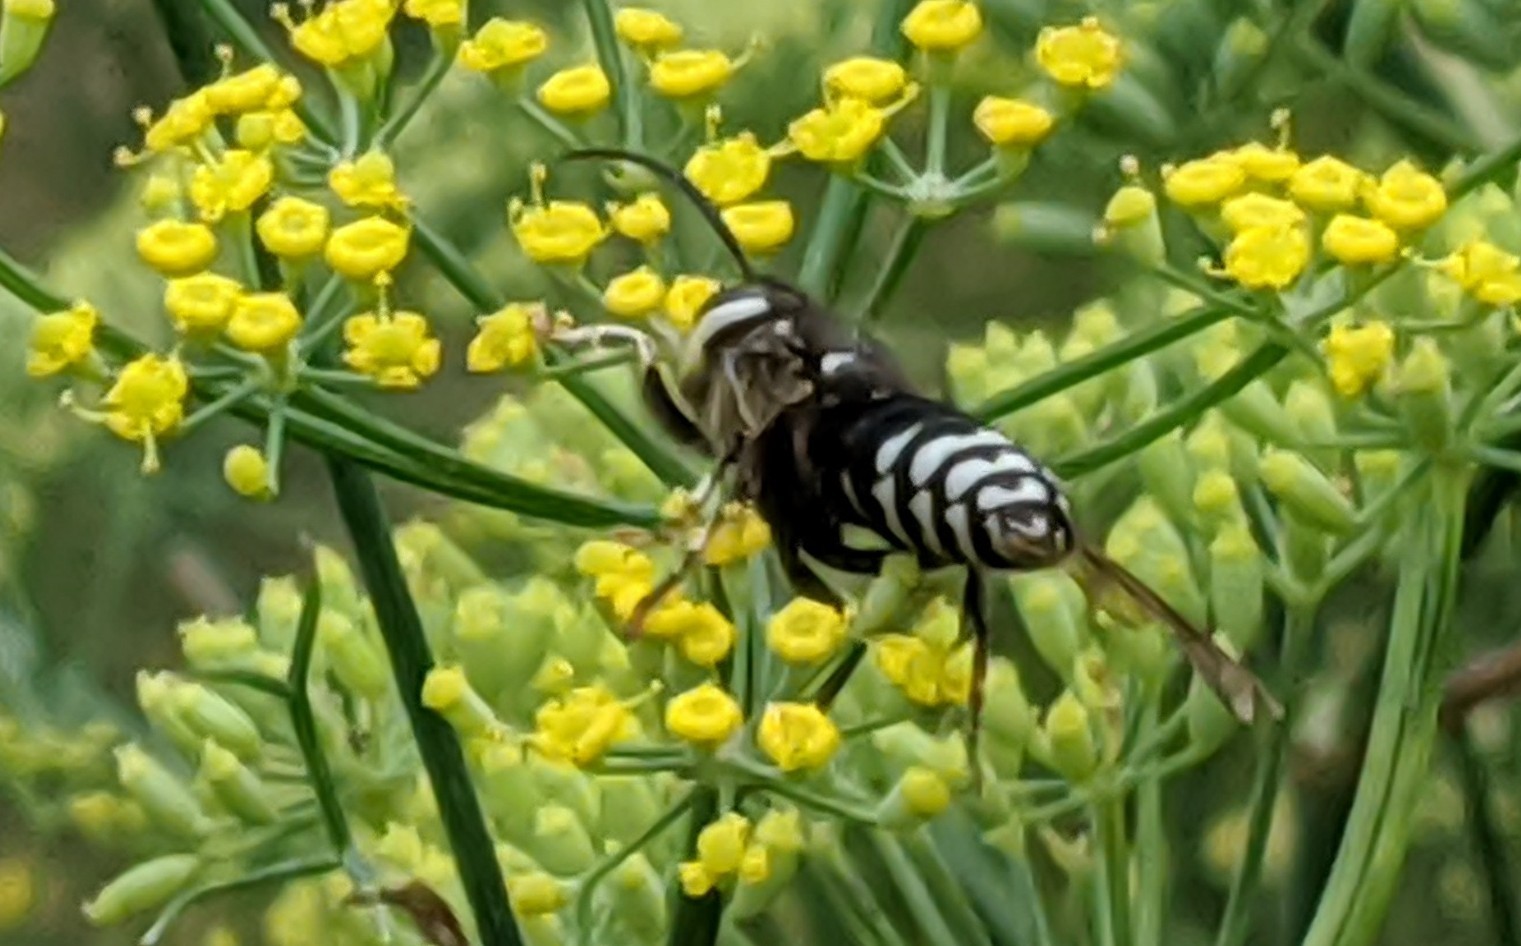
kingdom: Animalia
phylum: Arthropoda
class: Insecta
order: Hymenoptera
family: Vespidae
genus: Dolichovespula
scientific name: Dolichovespula maculata
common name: Bald-faced hornet
